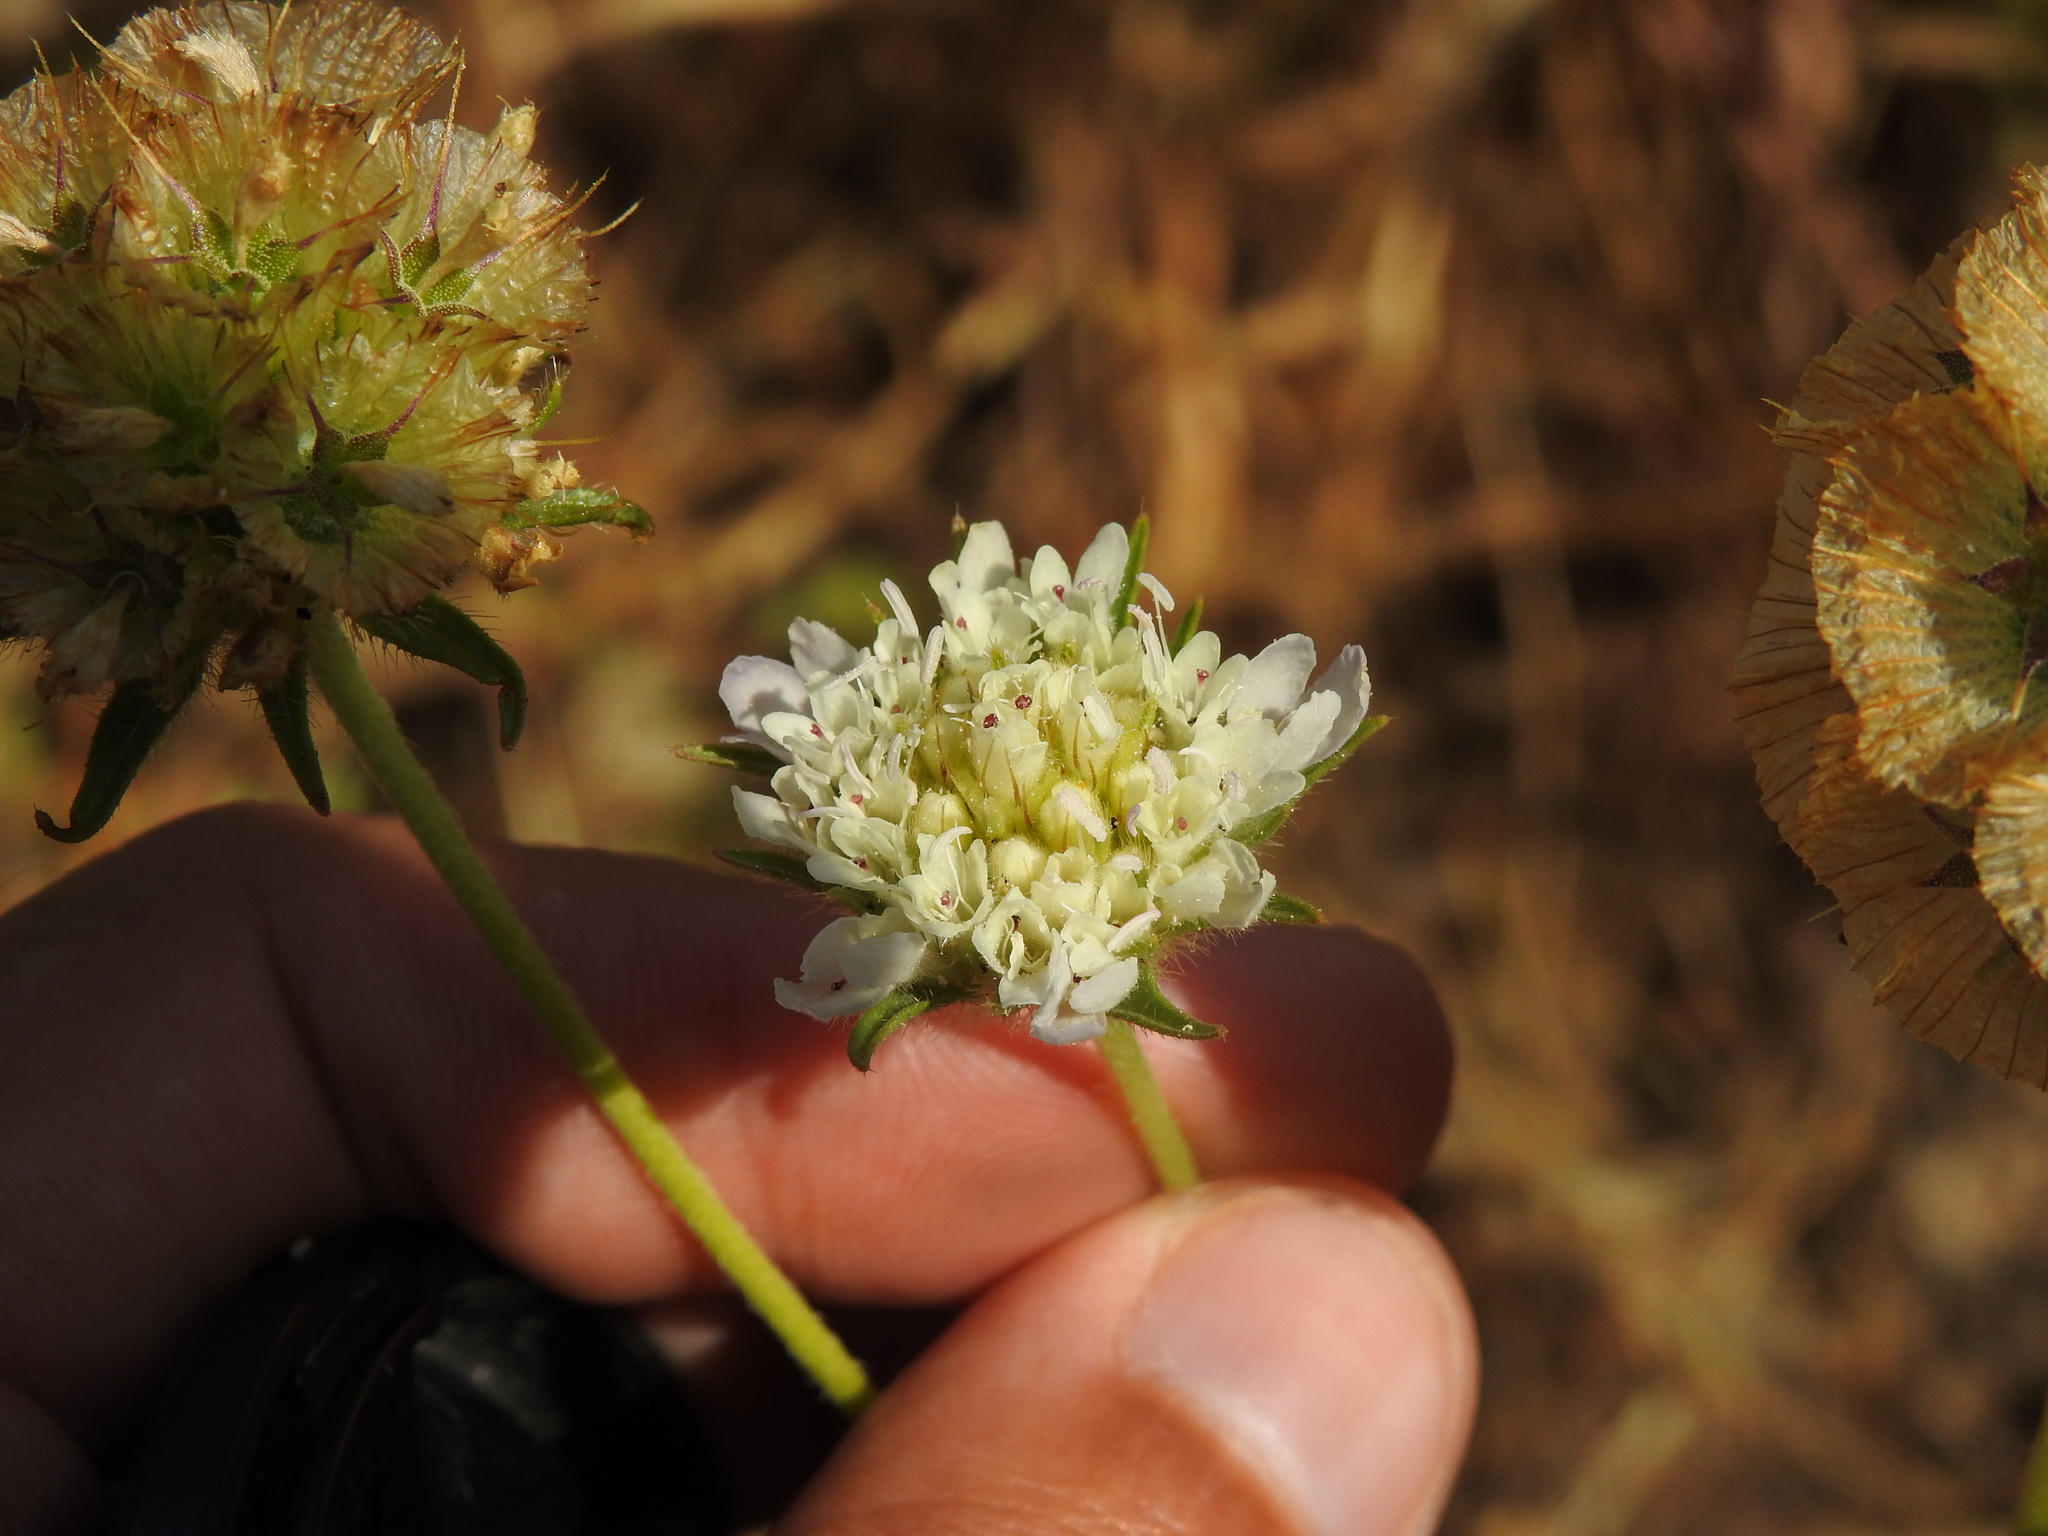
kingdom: Plantae
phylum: Tracheophyta
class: Magnoliopsida
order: Dipsacales
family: Caprifoliaceae
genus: Lomelosia
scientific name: Lomelosia simplex
